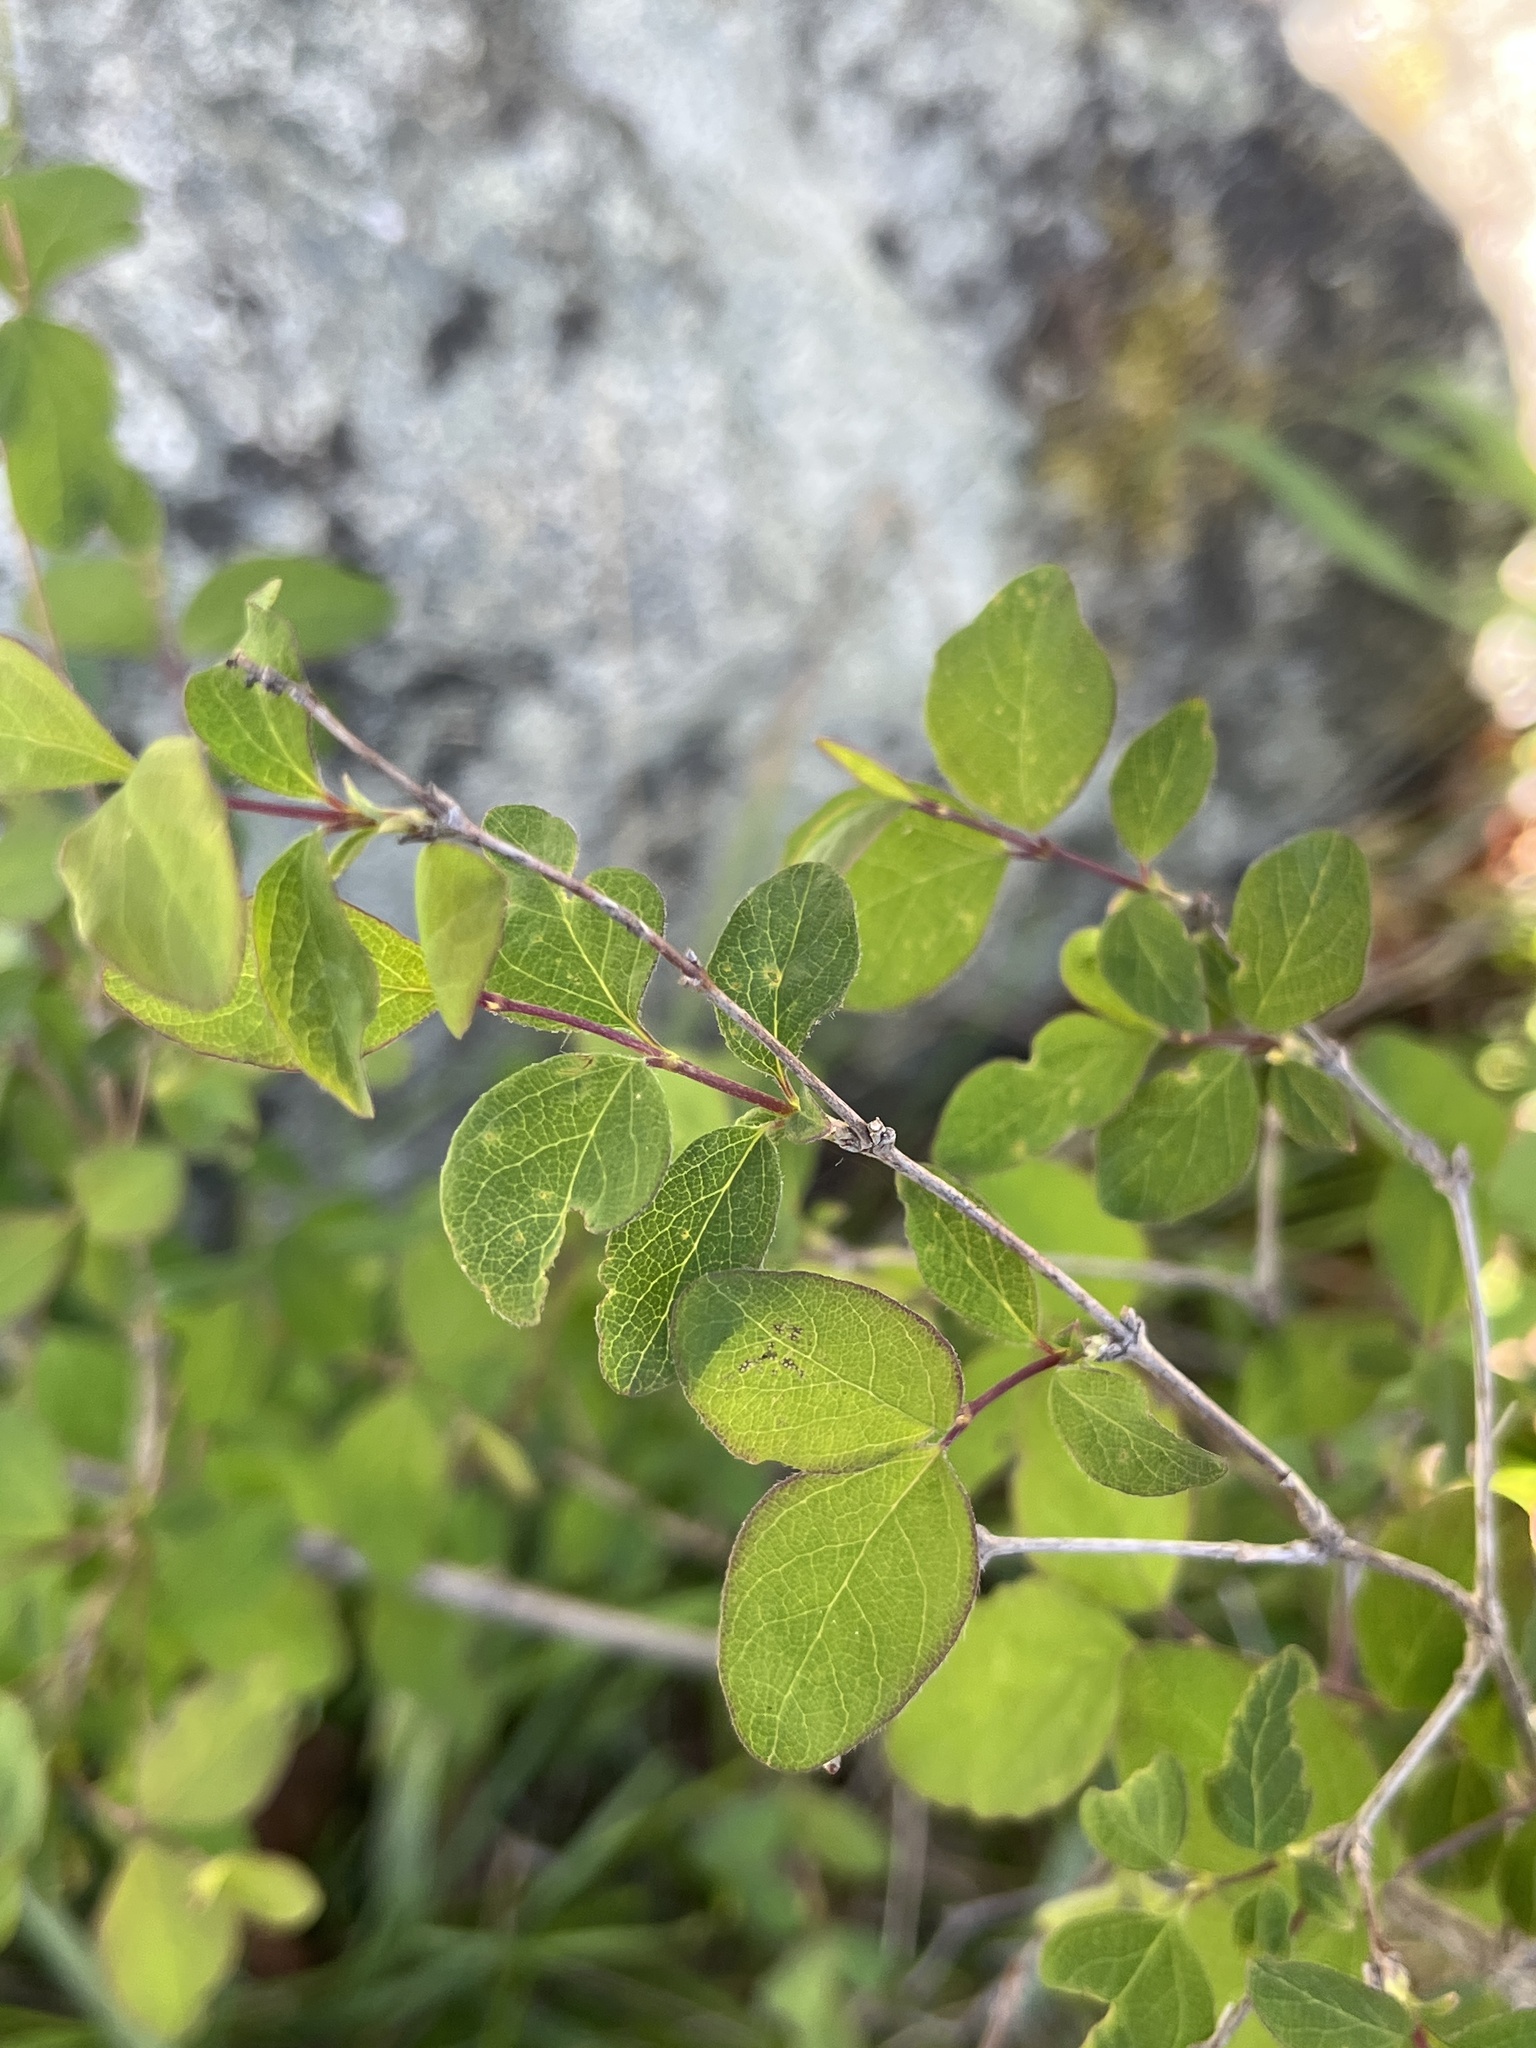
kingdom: Plantae
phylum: Tracheophyta
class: Magnoliopsida
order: Dipsacales
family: Caprifoliaceae
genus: Symphoricarpos
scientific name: Symphoricarpos albus
